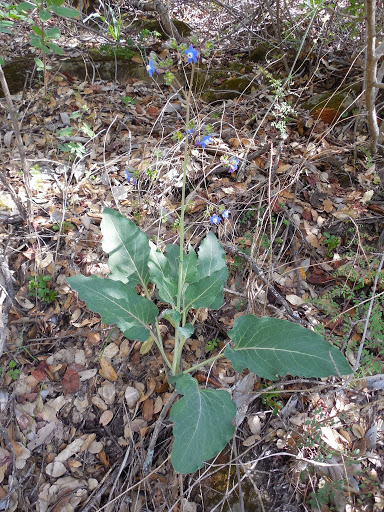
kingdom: Plantae
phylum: Tracheophyta
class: Magnoliopsida
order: Boraginales
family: Boraginaceae
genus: Adelinia
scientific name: Adelinia grande
